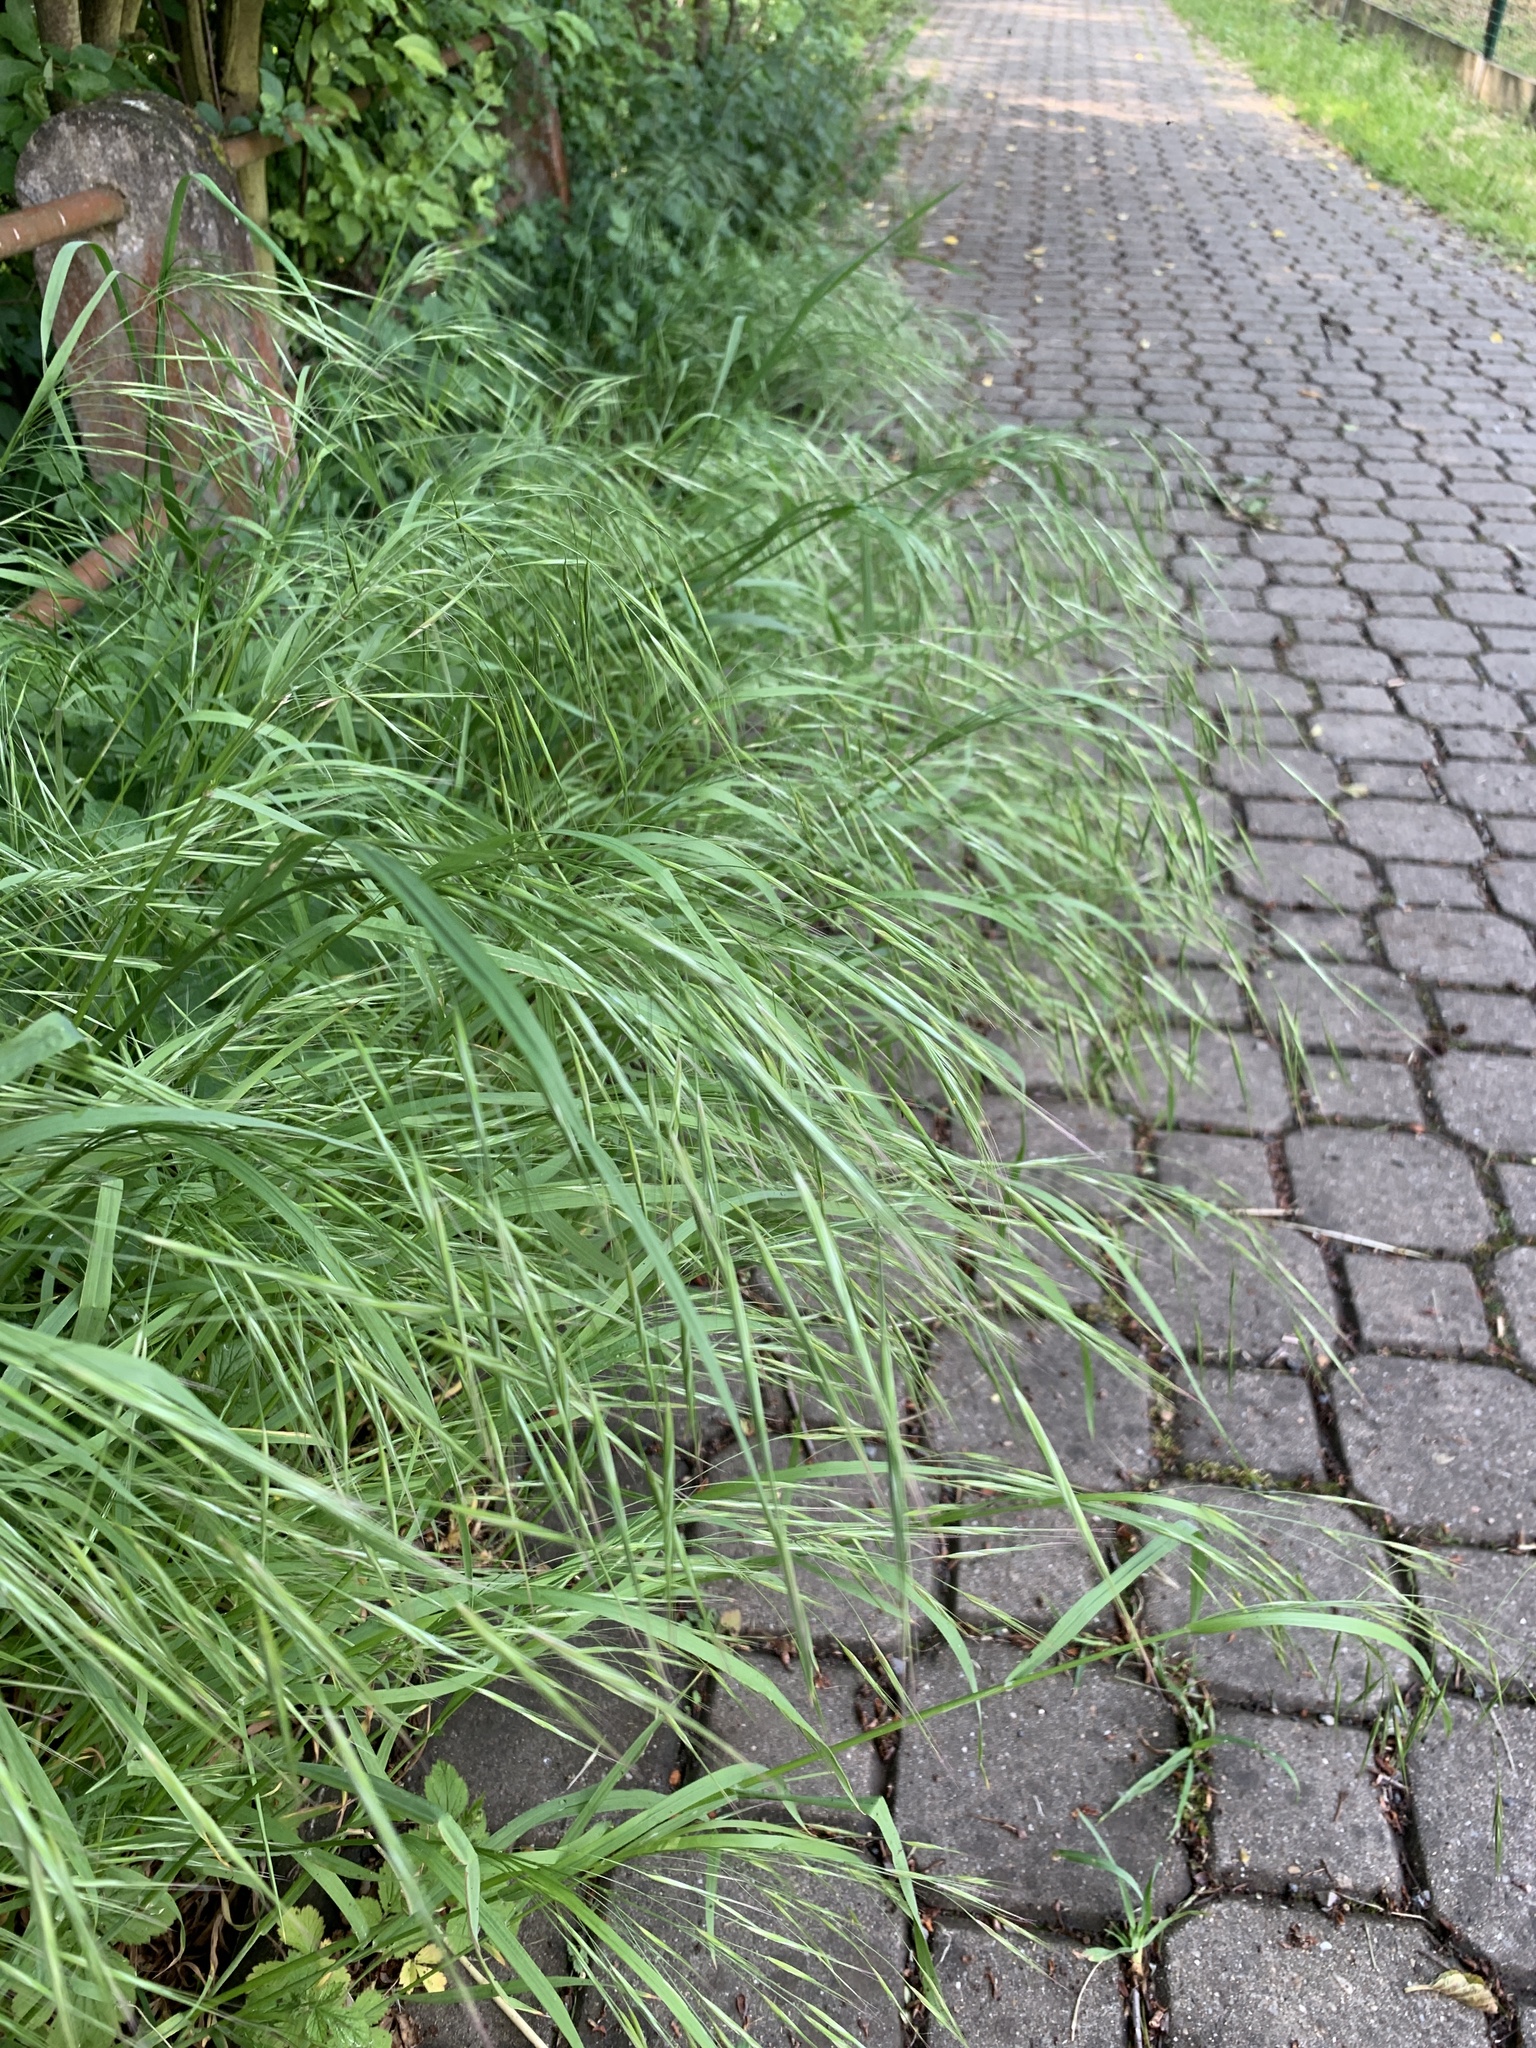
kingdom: Plantae
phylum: Tracheophyta
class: Liliopsida
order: Poales
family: Poaceae
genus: Bromus
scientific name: Bromus sterilis
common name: Poverty brome
